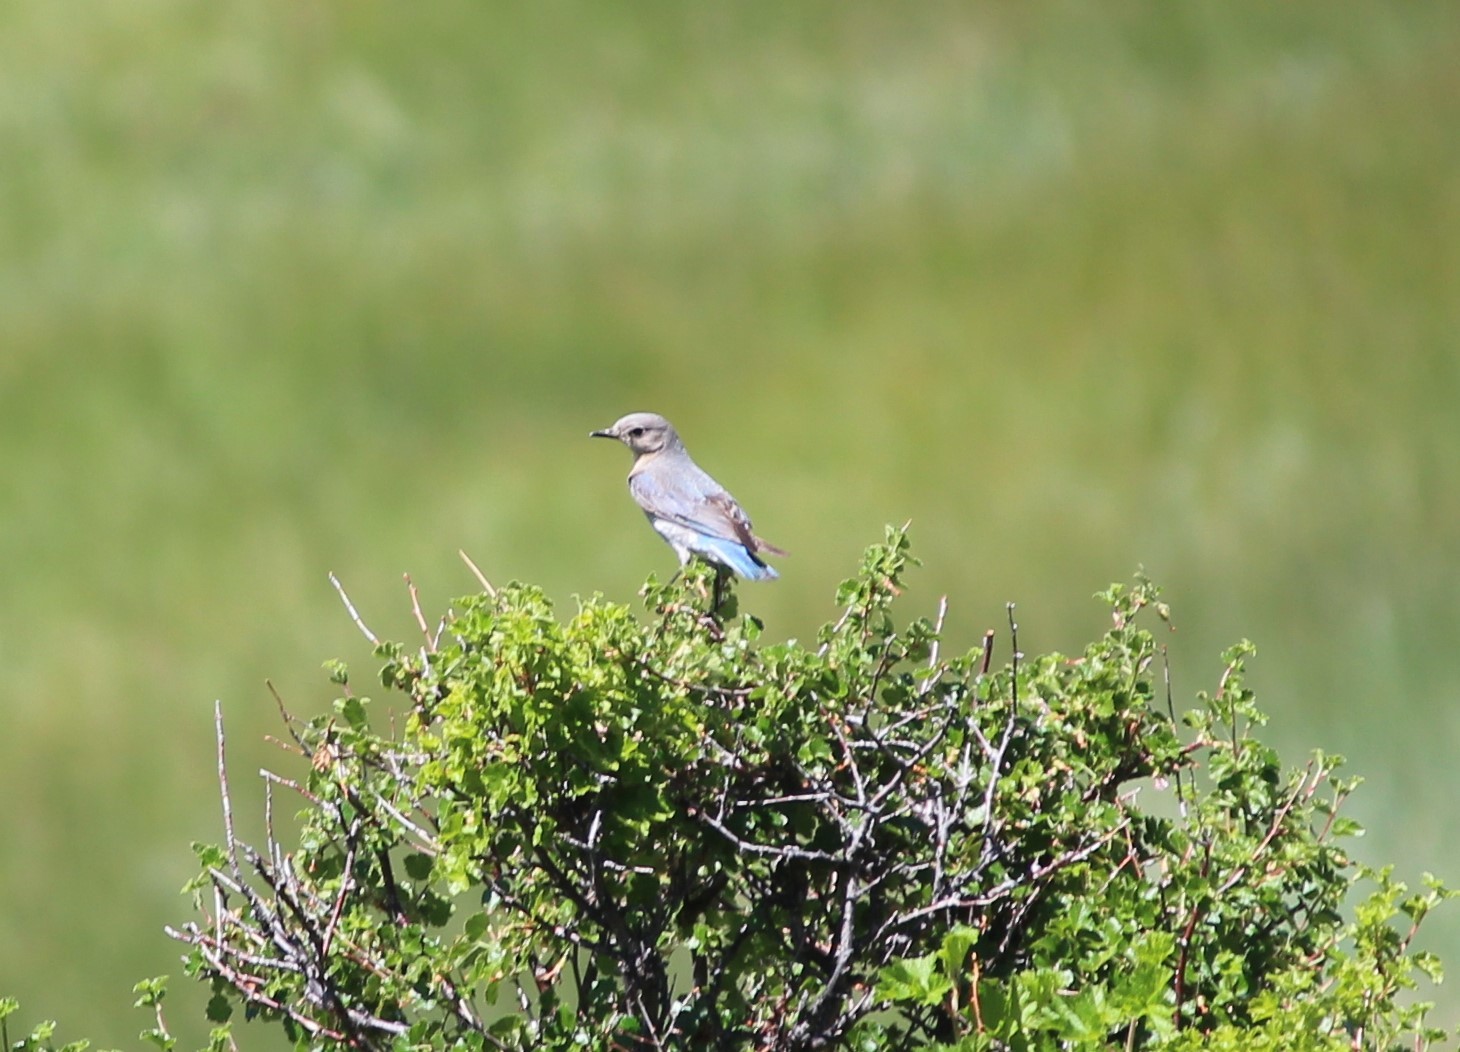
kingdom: Animalia
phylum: Chordata
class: Aves
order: Passeriformes
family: Turdidae
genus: Sialia
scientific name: Sialia currucoides
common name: Mountain bluebird
